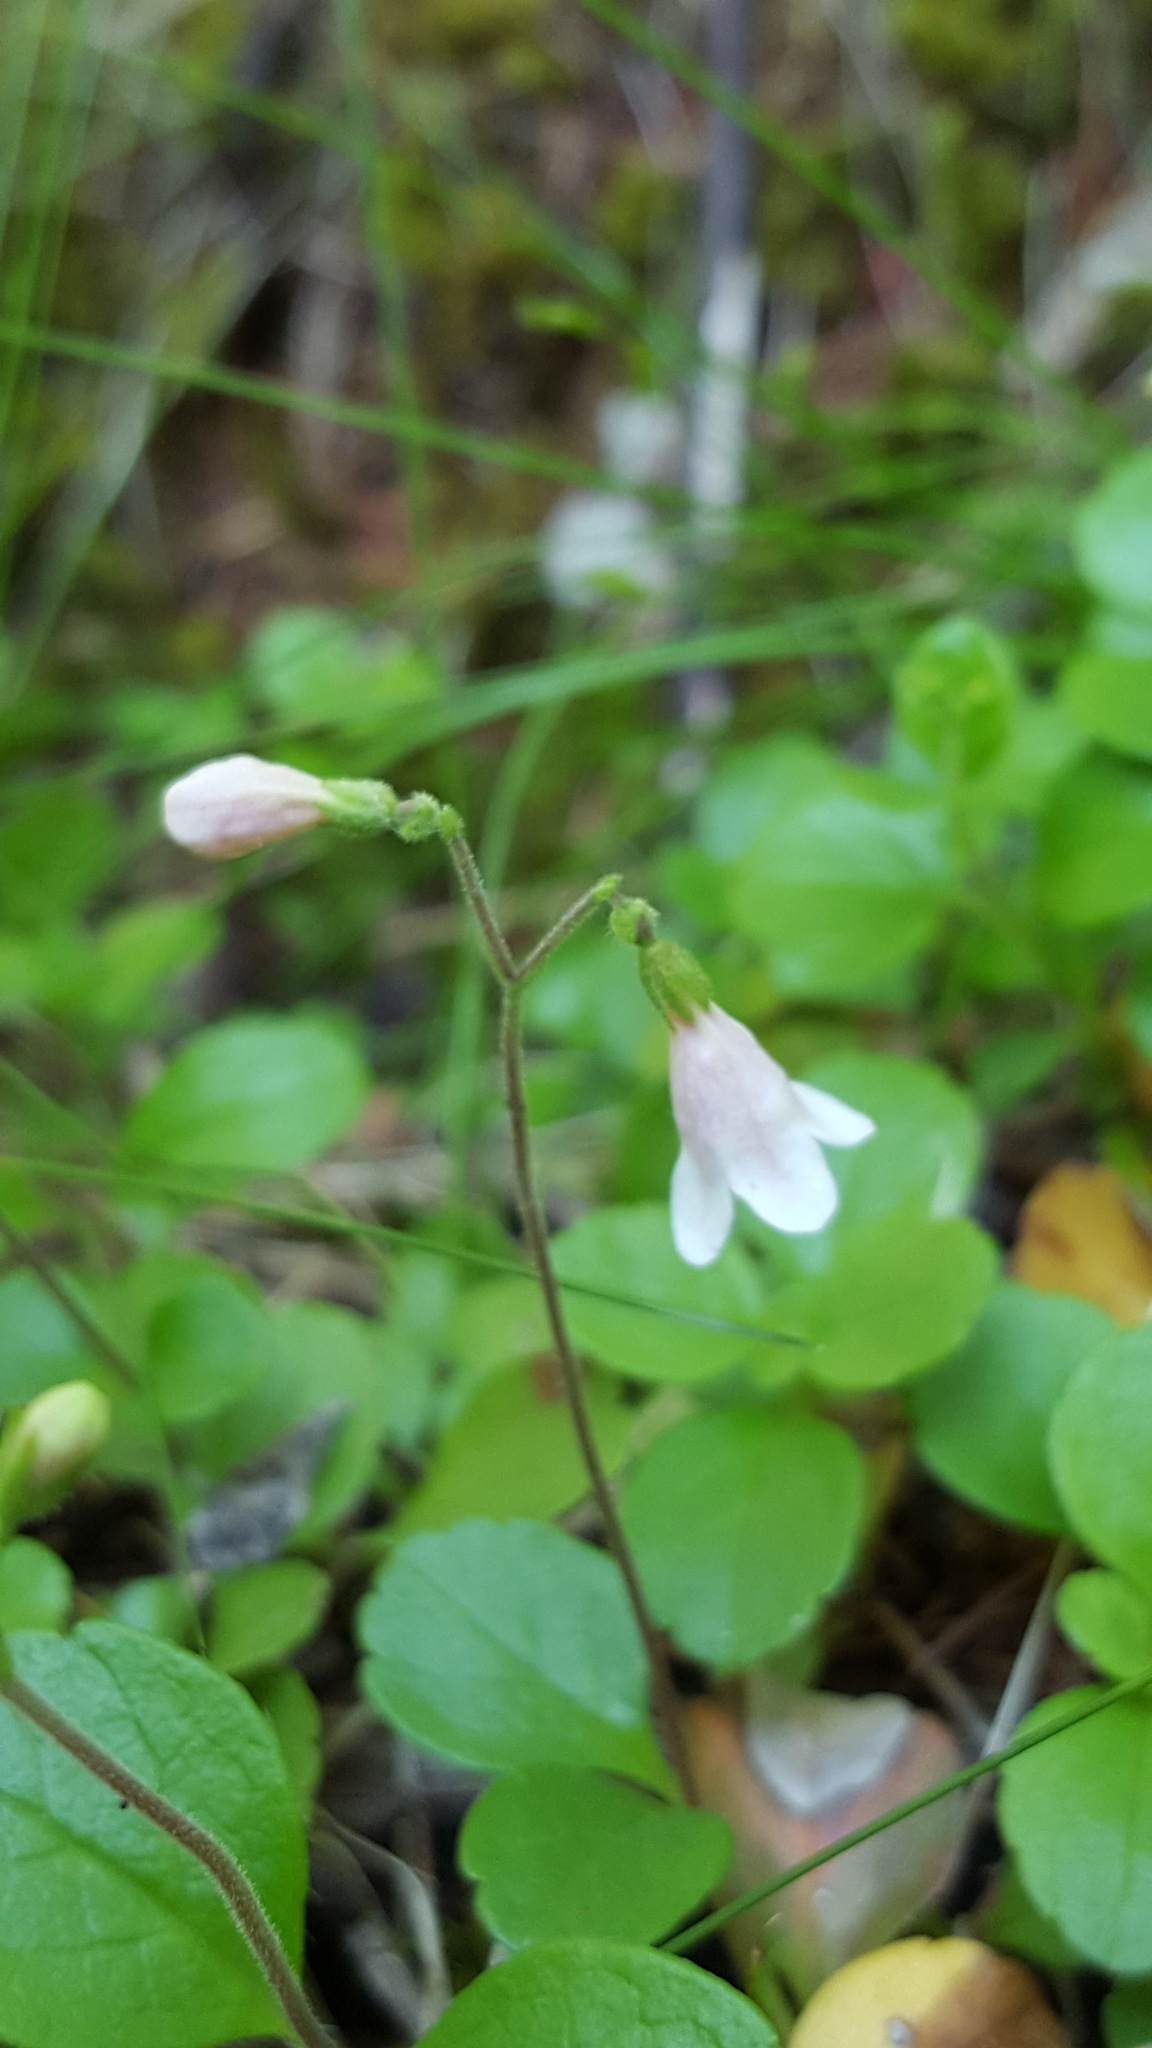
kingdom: Plantae
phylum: Tracheophyta
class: Magnoliopsida
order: Dipsacales
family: Caprifoliaceae
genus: Linnaea
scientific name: Linnaea borealis
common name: Twinflower
